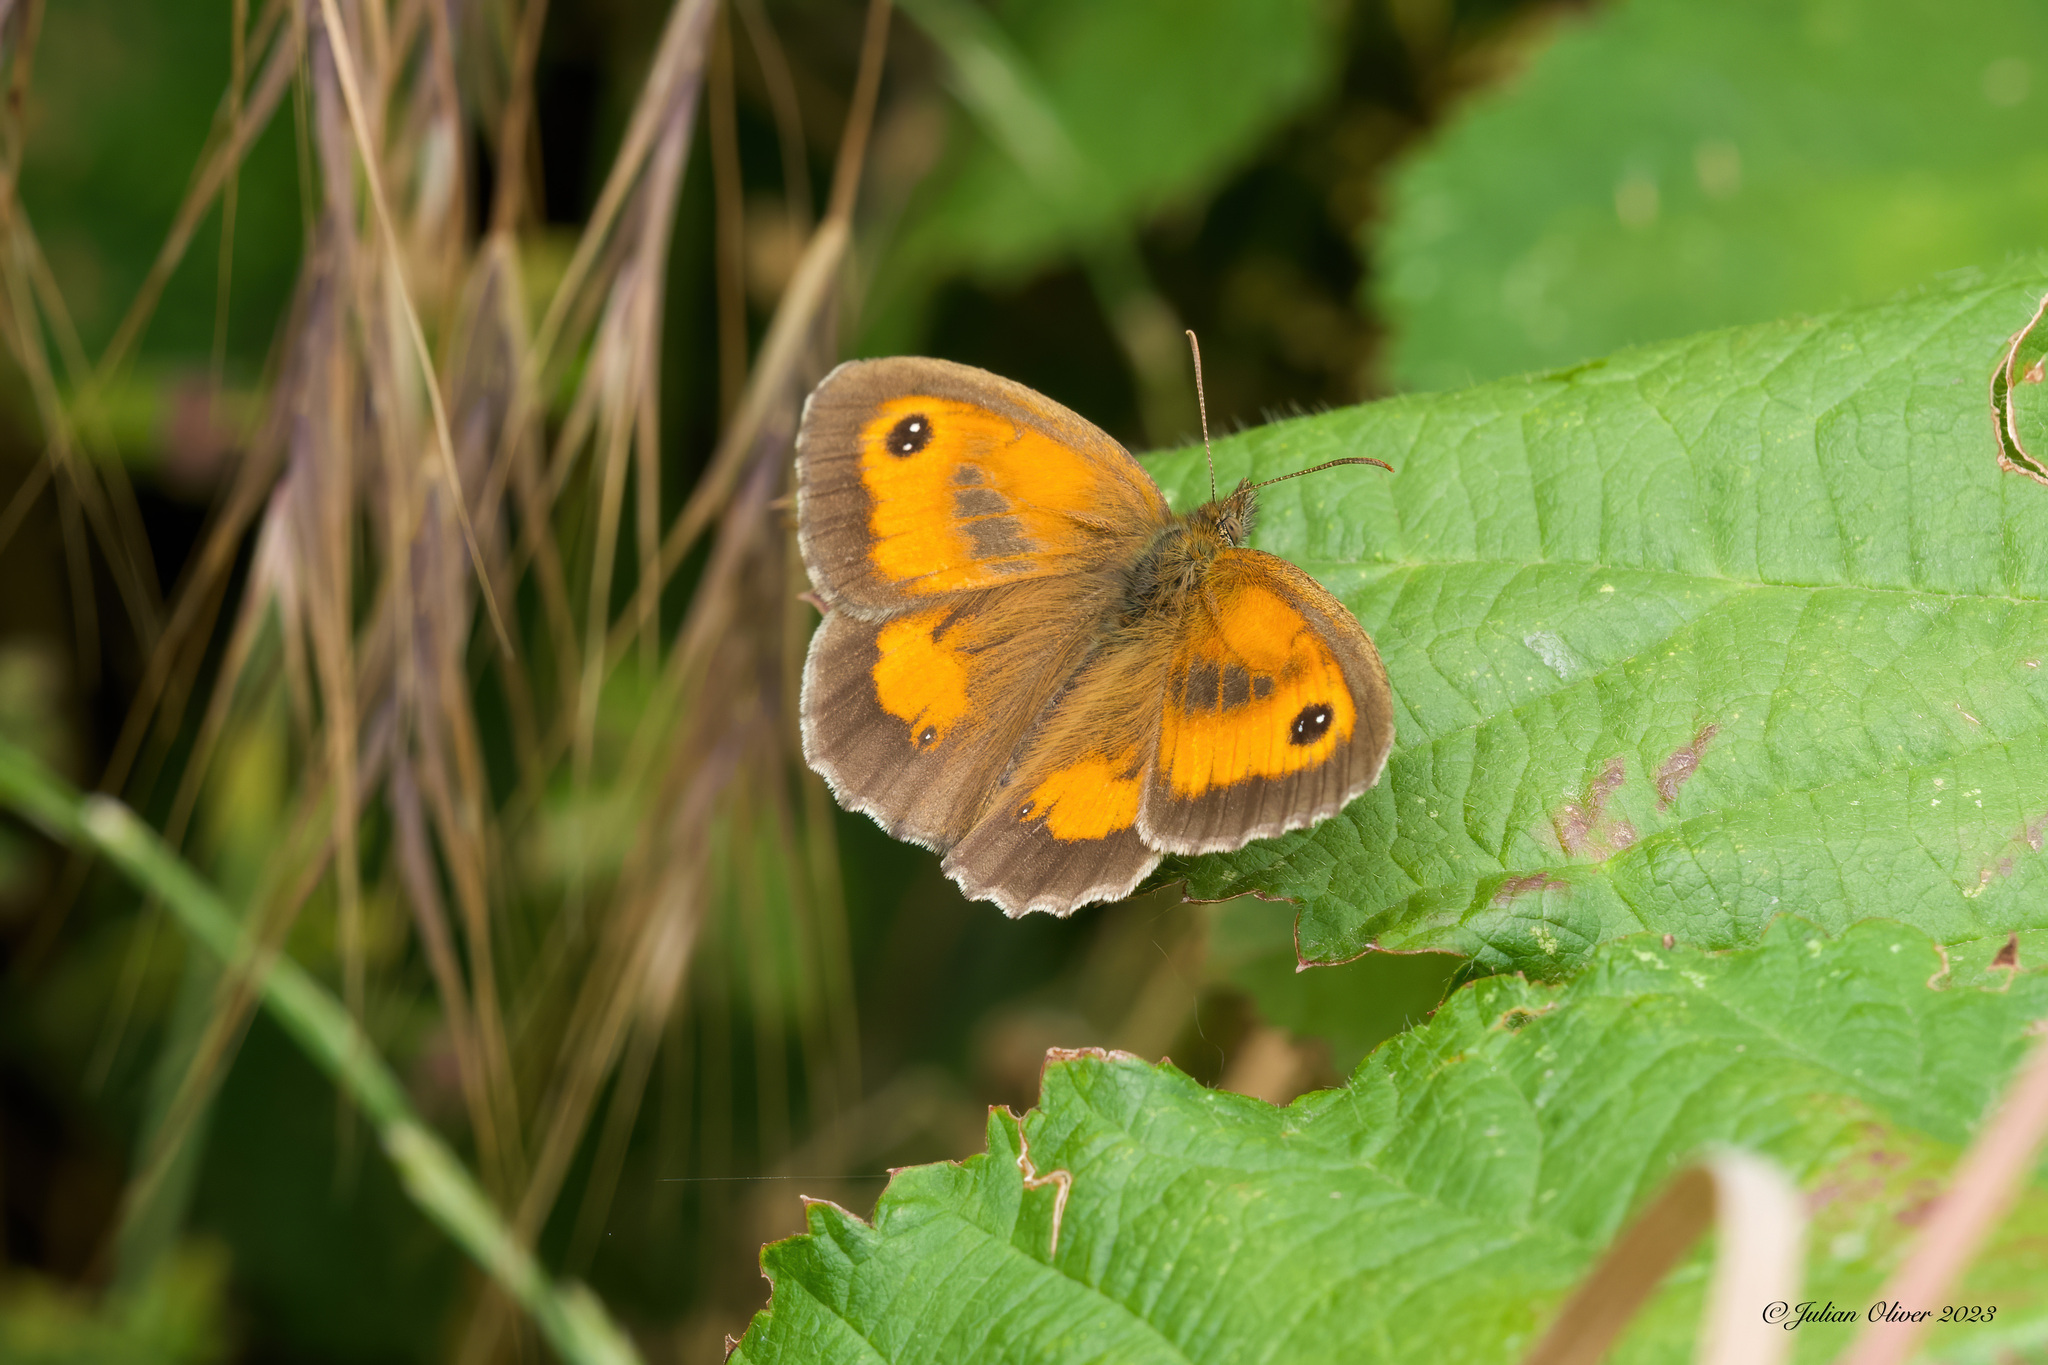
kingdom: Animalia
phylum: Arthropoda
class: Insecta
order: Lepidoptera
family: Nymphalidae
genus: Pyronia
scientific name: Pyronia tithonus
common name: Gatekeeper
